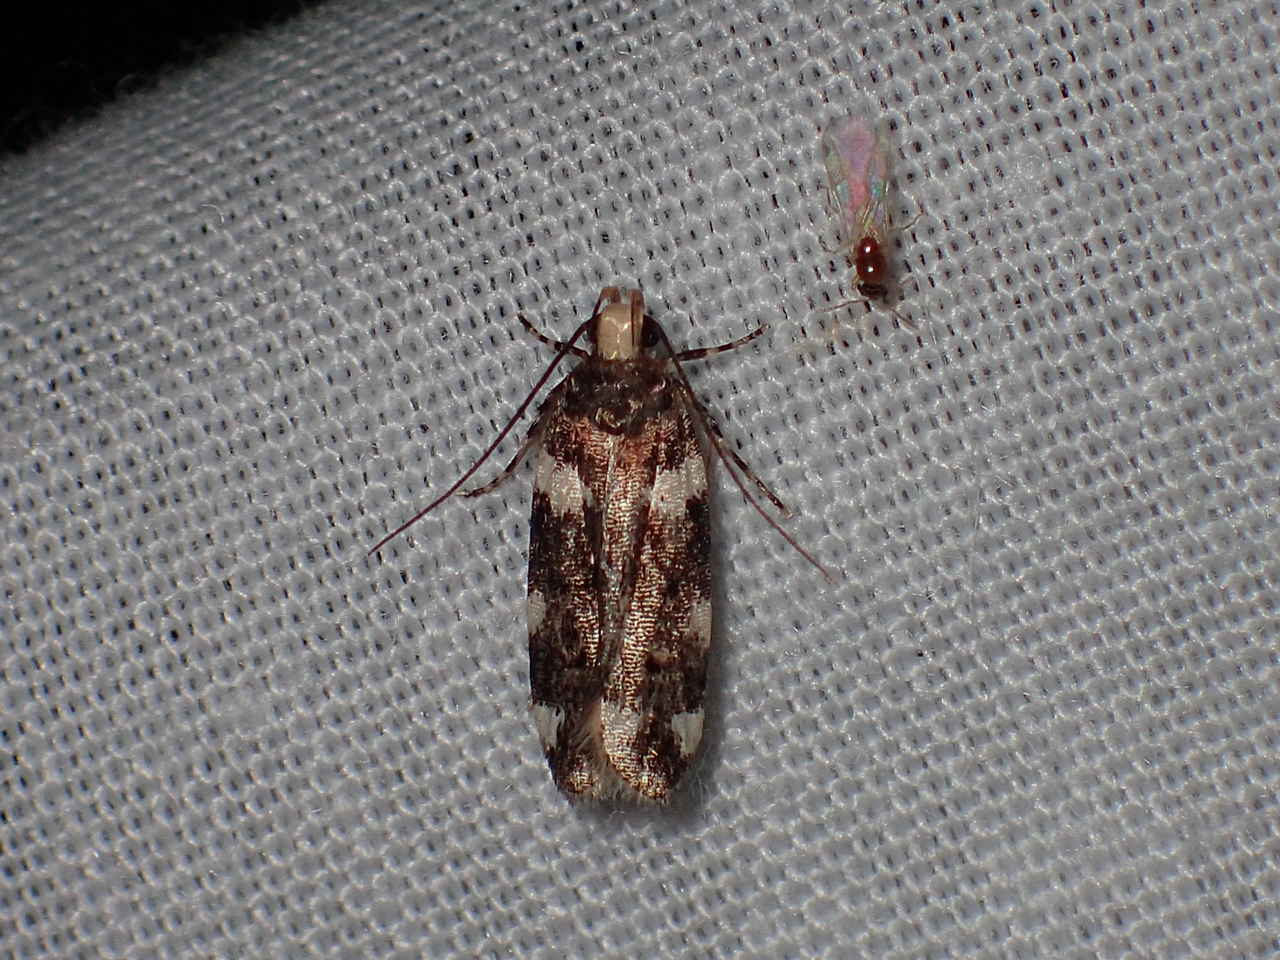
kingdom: Animalia
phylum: Arthropoda
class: Insecta
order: Lepidoptera
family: Gelechiidae
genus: Fascista
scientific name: Fascista cercerisella
